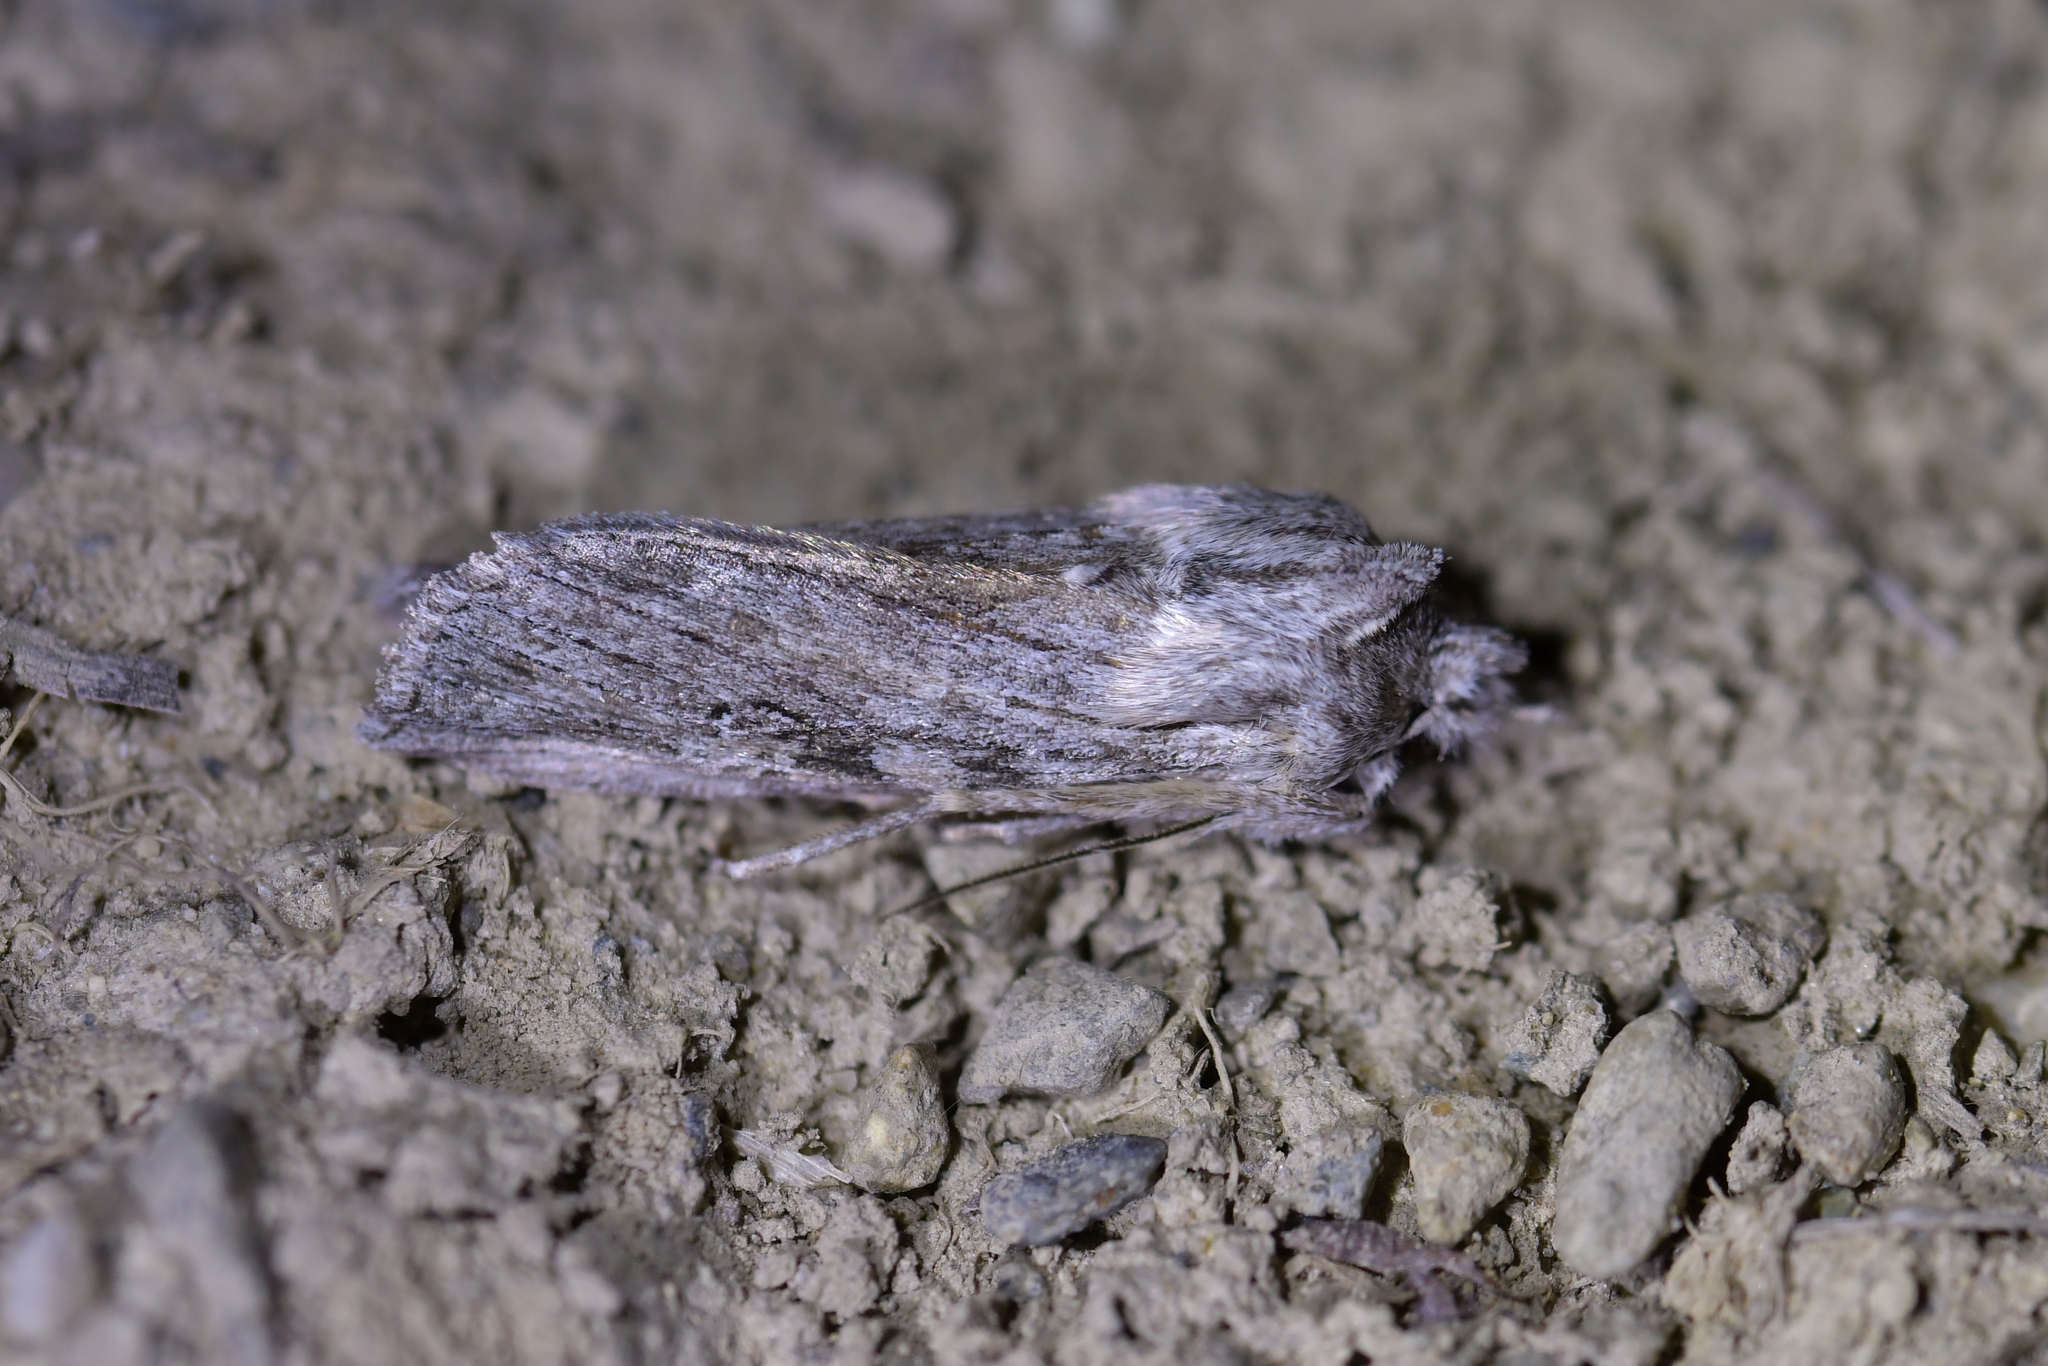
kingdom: Animalia
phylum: Arthropoda
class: Insecta
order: Lepidoptera
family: Noctuidae
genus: Physetica
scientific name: Physetica phricias
